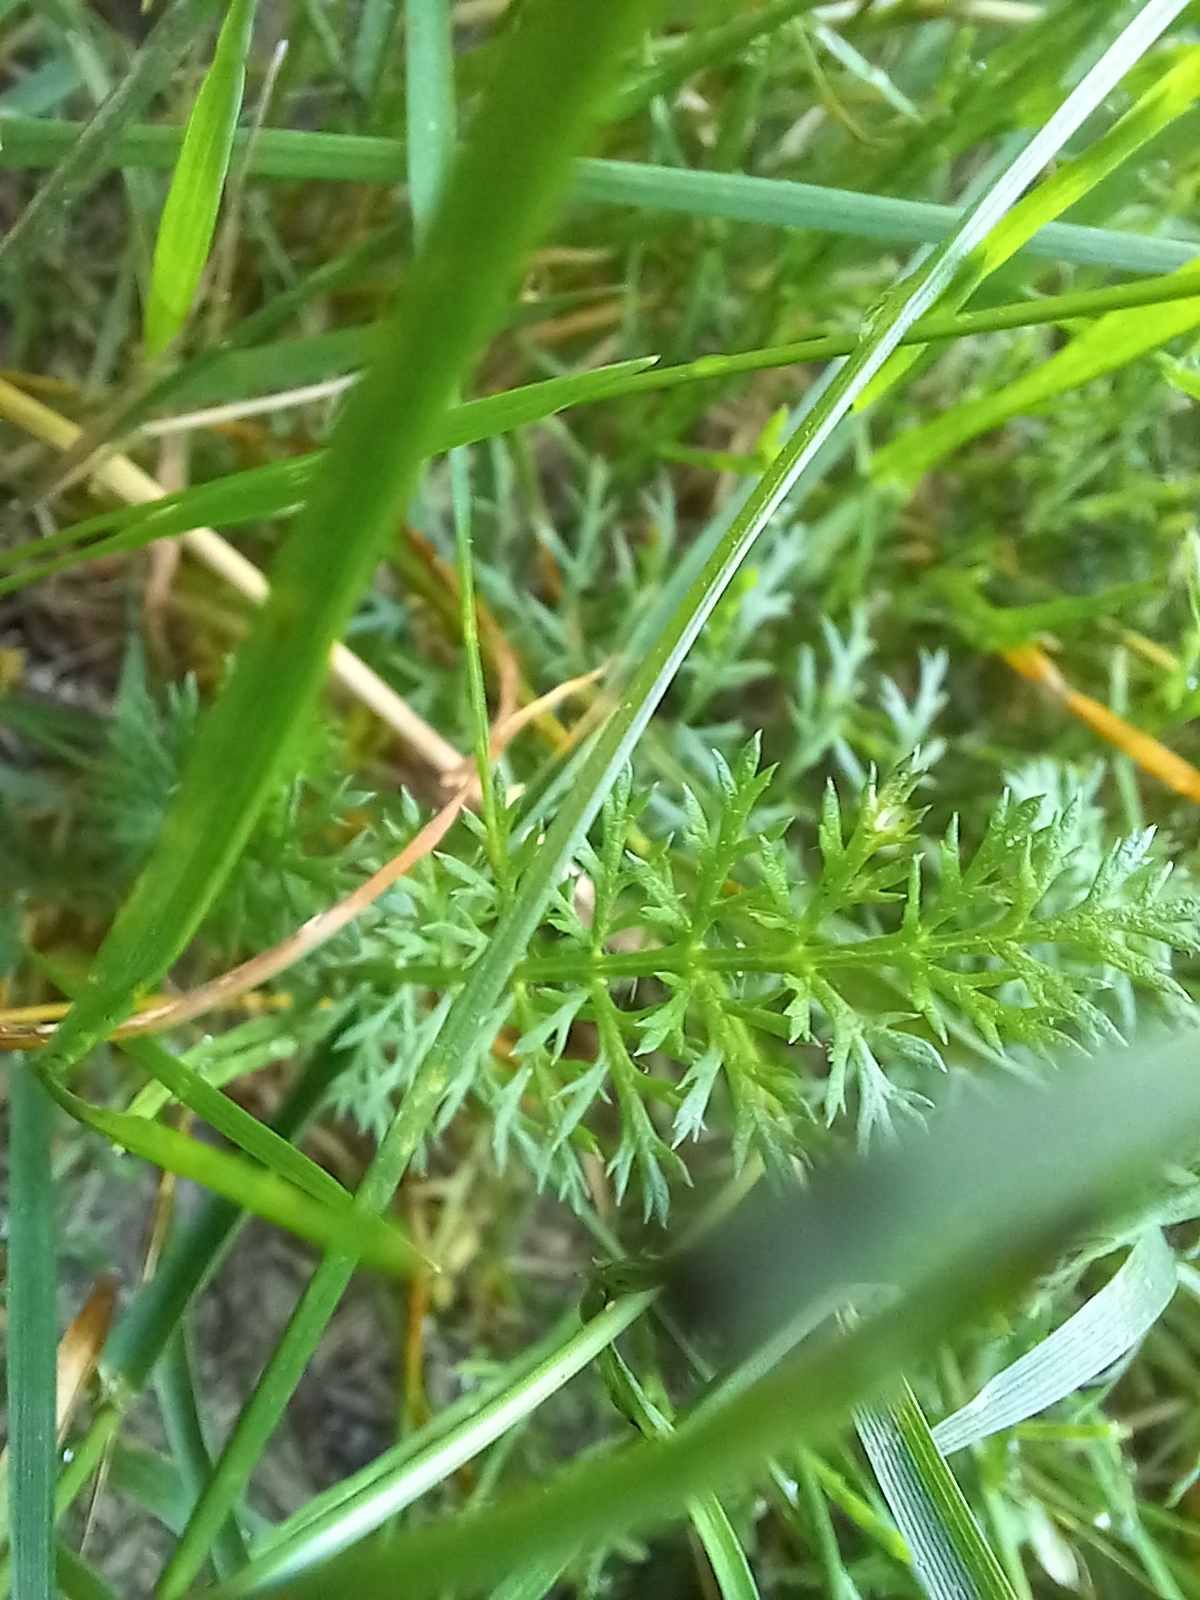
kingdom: Plantae
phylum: Tracheophyta
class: Magnoliopsida
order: Asterales
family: Asteraceae
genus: Achillea
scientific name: Achillea millefolium
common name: Yarrow
